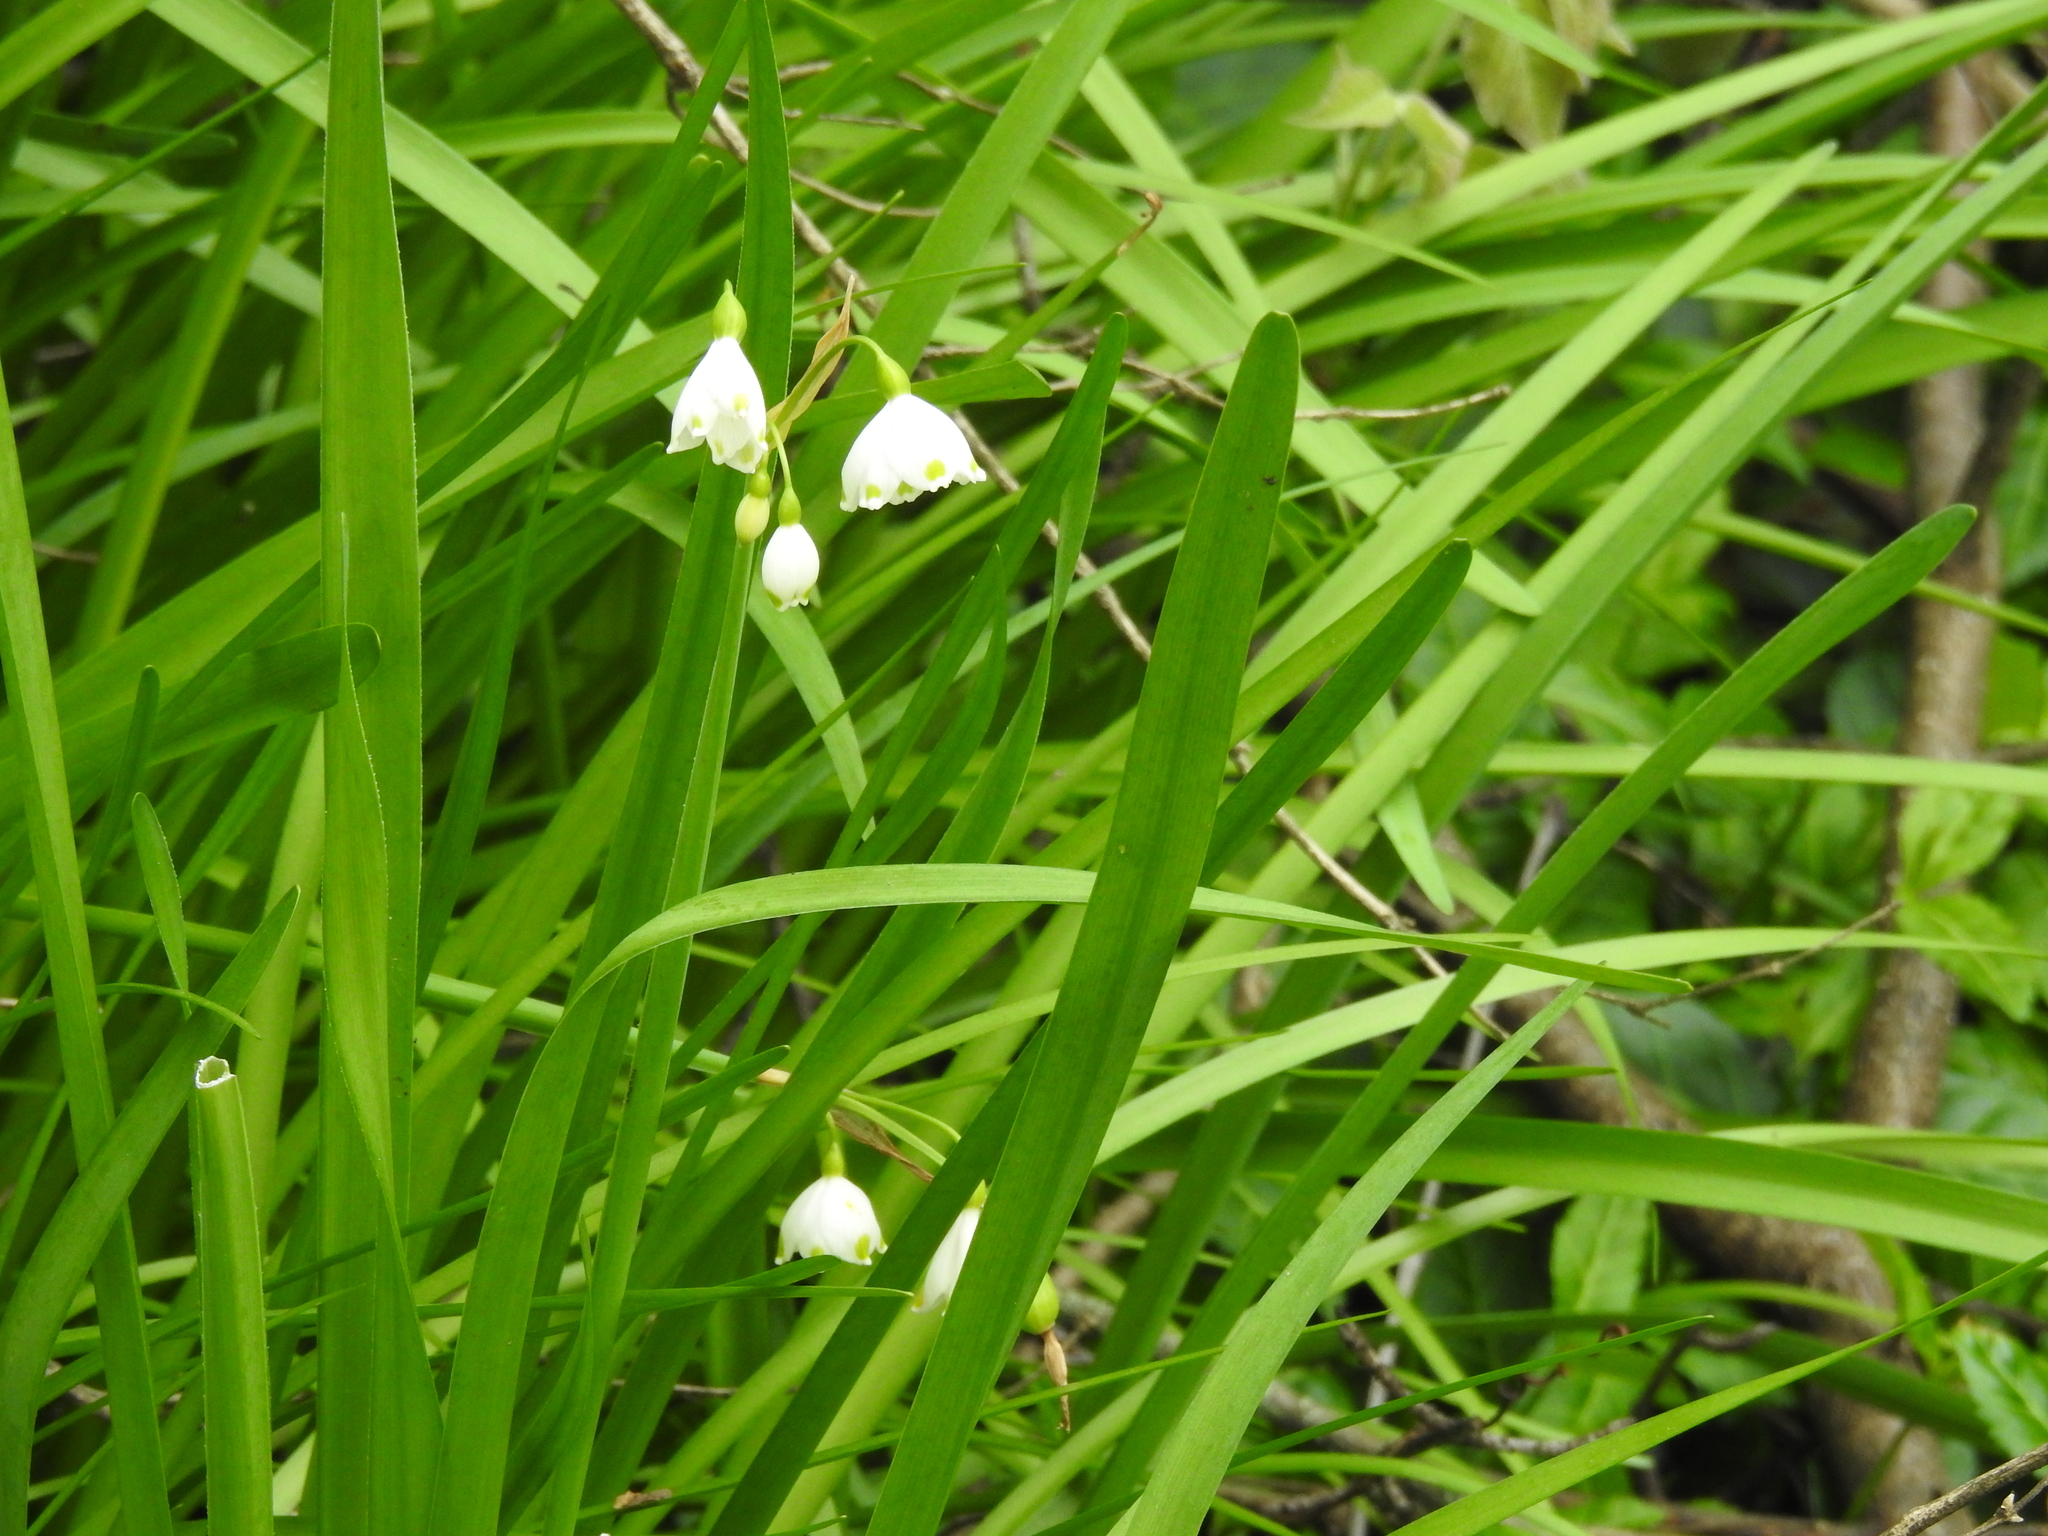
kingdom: Plantae
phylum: Tracheophyta
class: Liliopsida
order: Asparagales
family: Amaryllidaceae
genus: Leucojum
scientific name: Leucojum aestivum
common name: Summer snowflake
